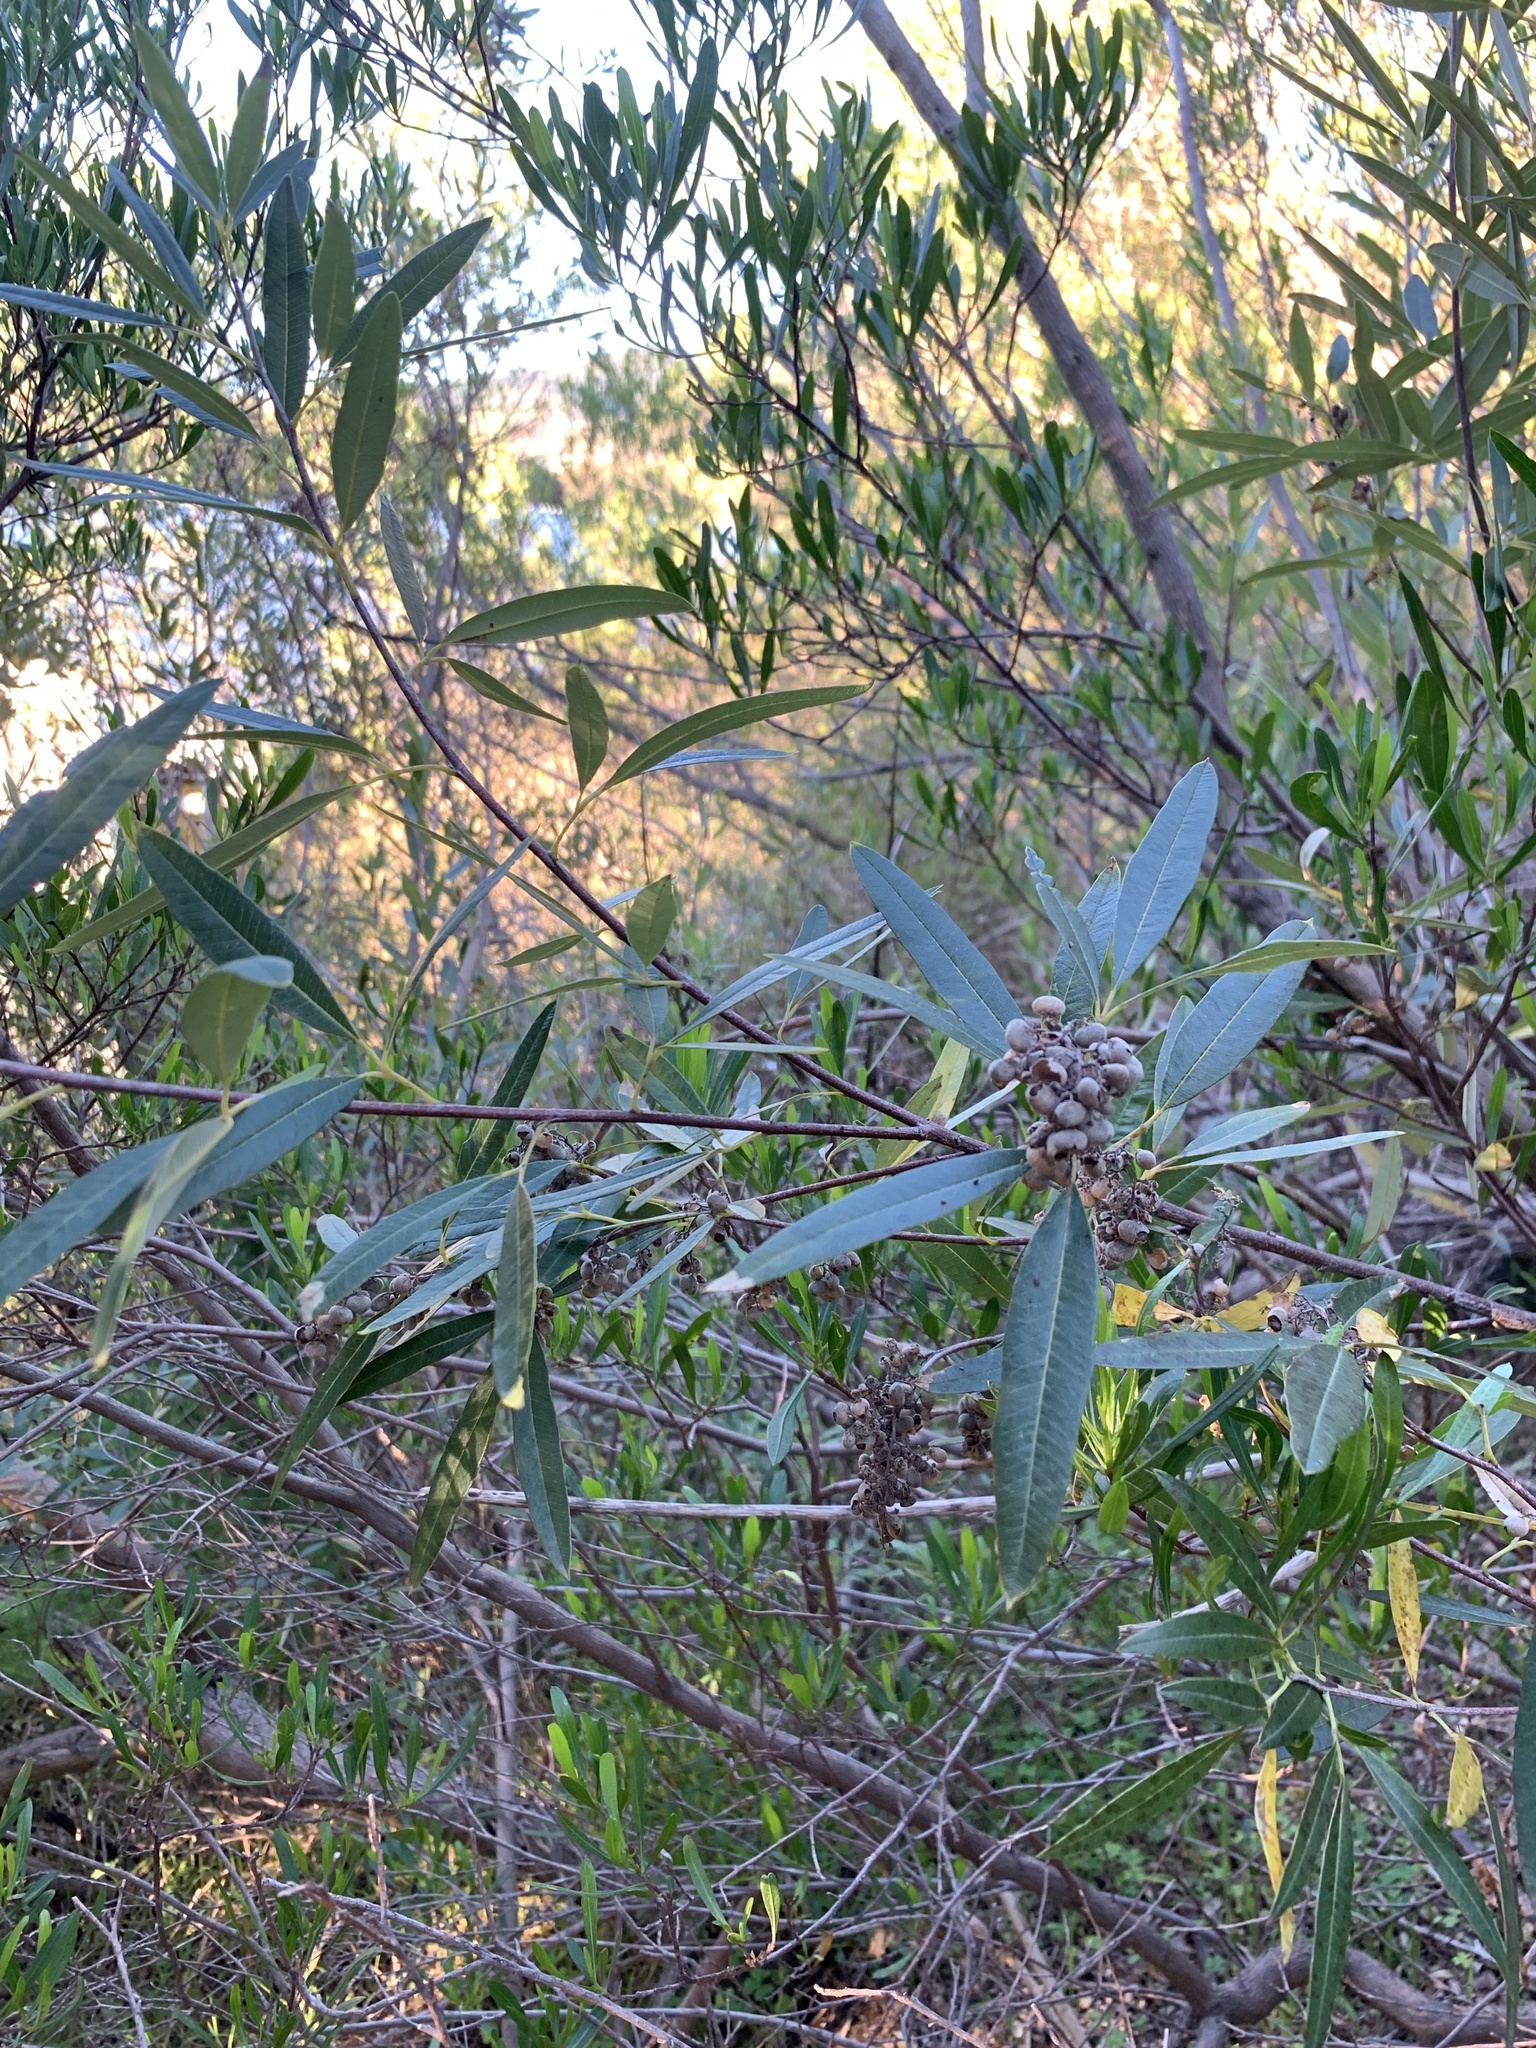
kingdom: Plantae
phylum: Tracheophyta
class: Magnoliopsida
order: Sapindales
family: Anacardiaceae
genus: Searsia
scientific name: Searsia angustifolia
